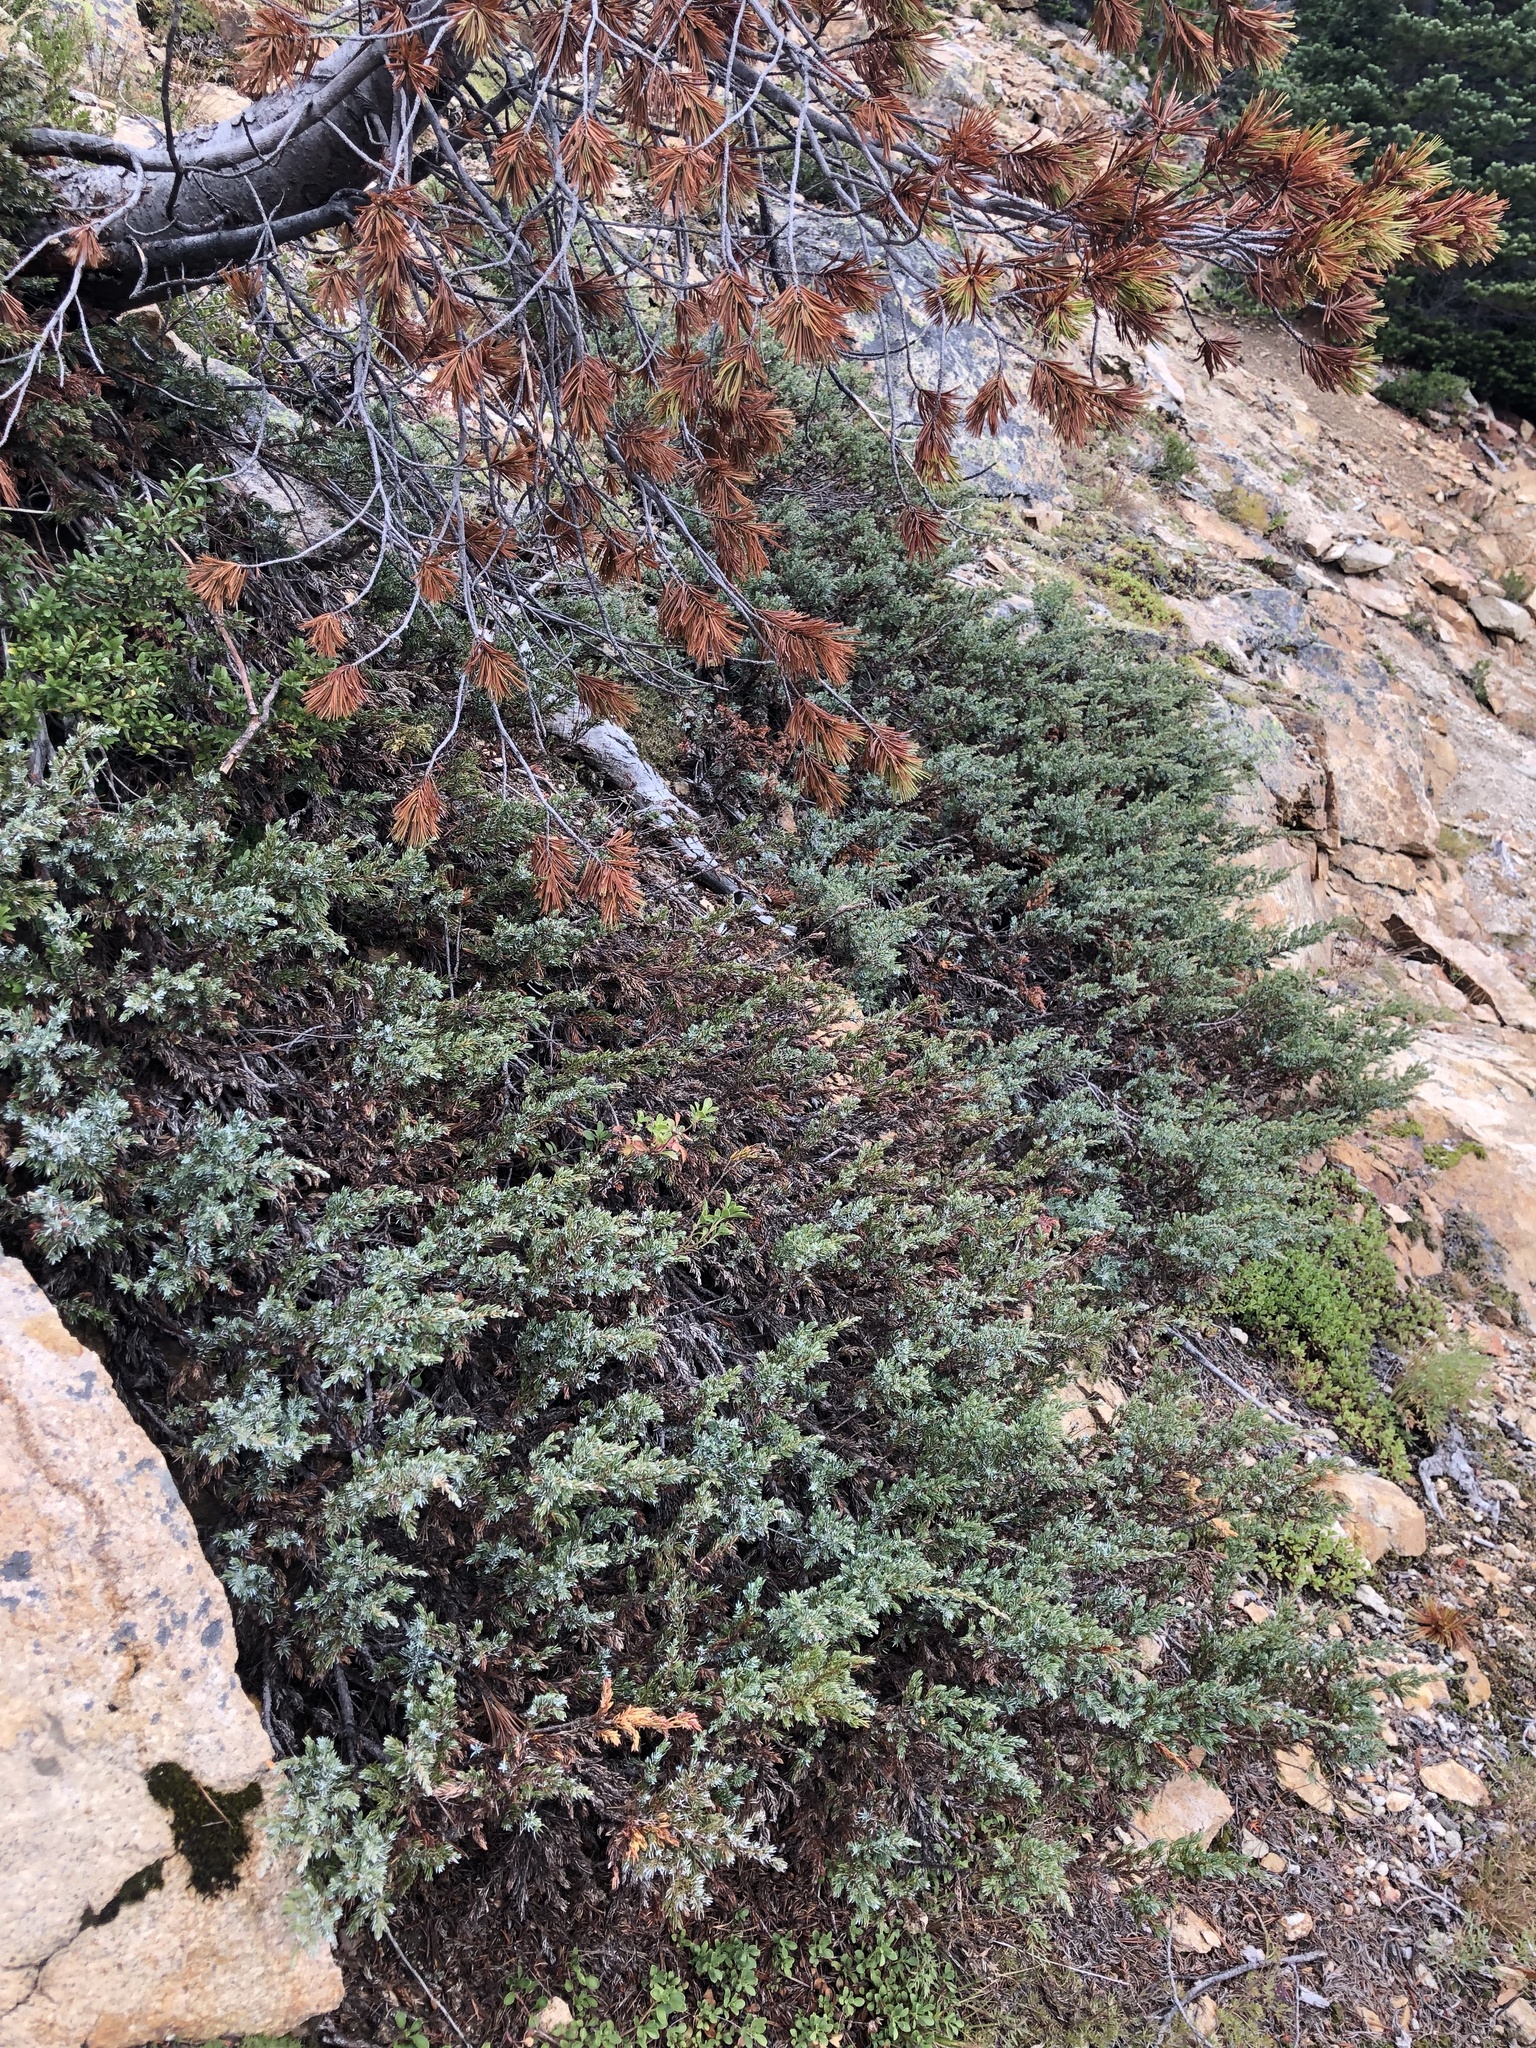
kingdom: Plantae
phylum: Tracheophyta
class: Pinopsida
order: Pinales
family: Cupressaceae
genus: Juniperus
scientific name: Juniperus communis
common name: Common juniper
